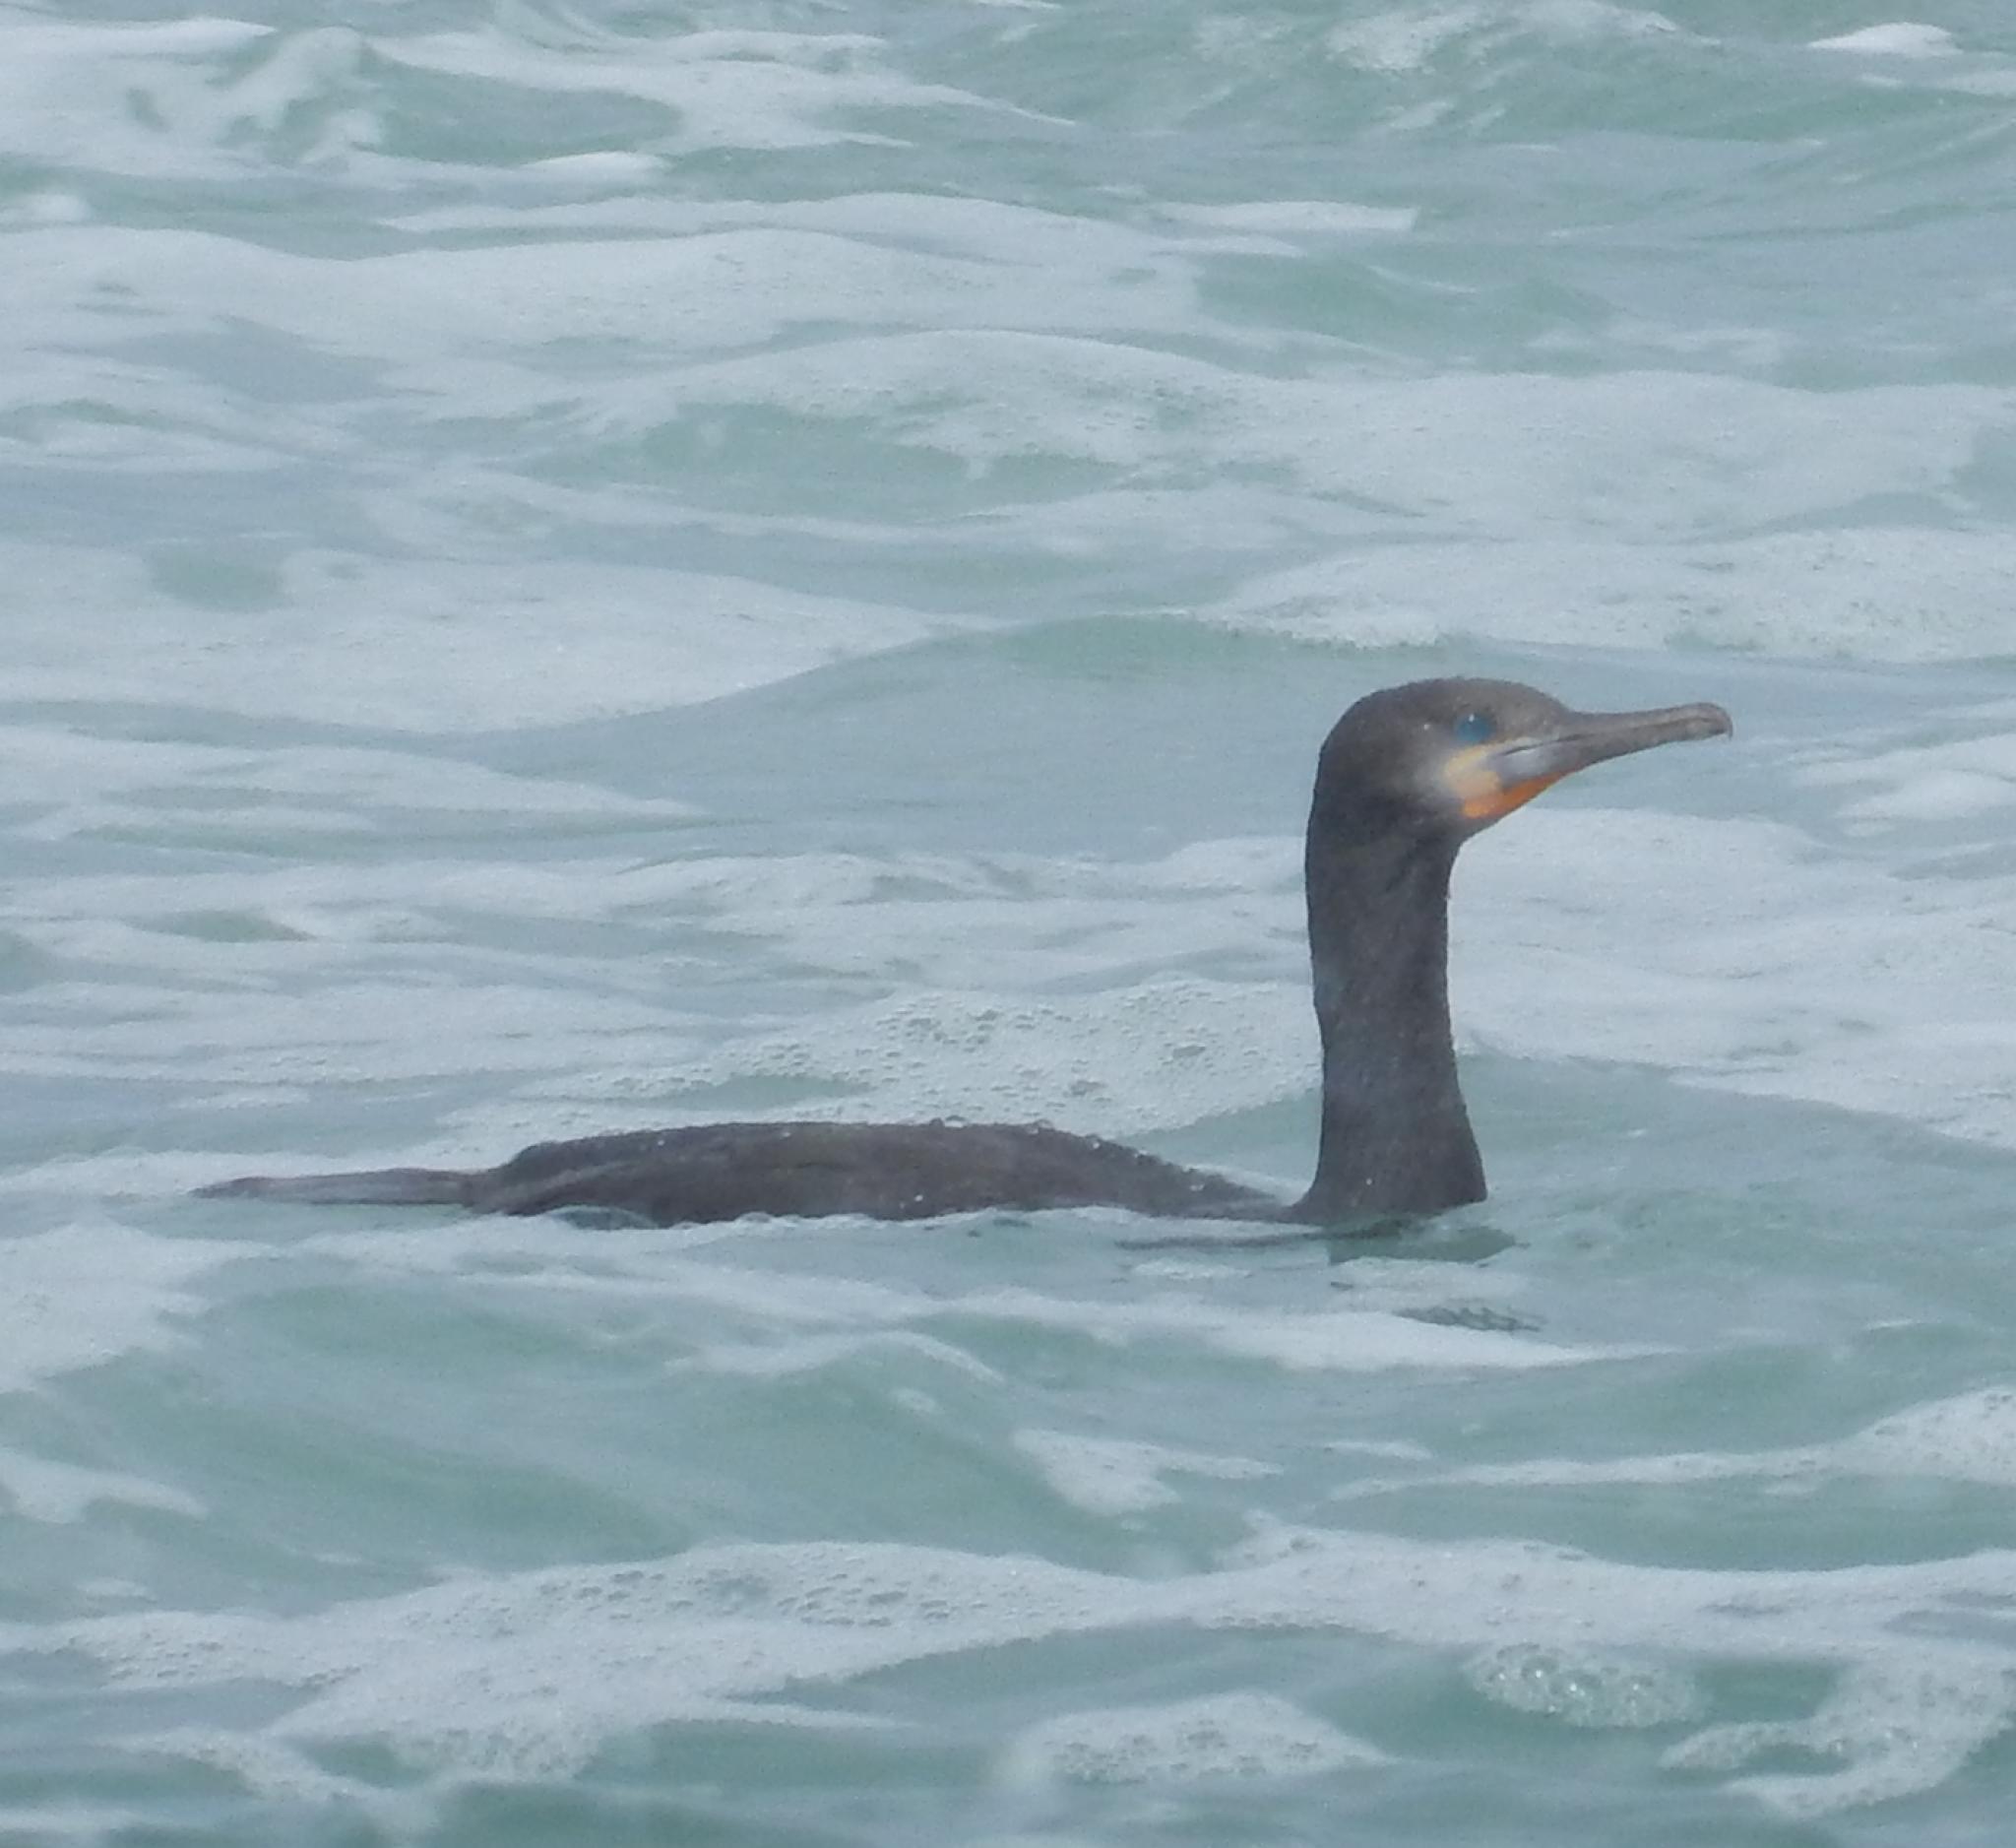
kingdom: Animalia
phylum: Chordata
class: Aves
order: Suliformes
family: Phalacrocoracidae
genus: Phalacrocorax
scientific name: Phalacrocorax capensis
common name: Cape cormorant
